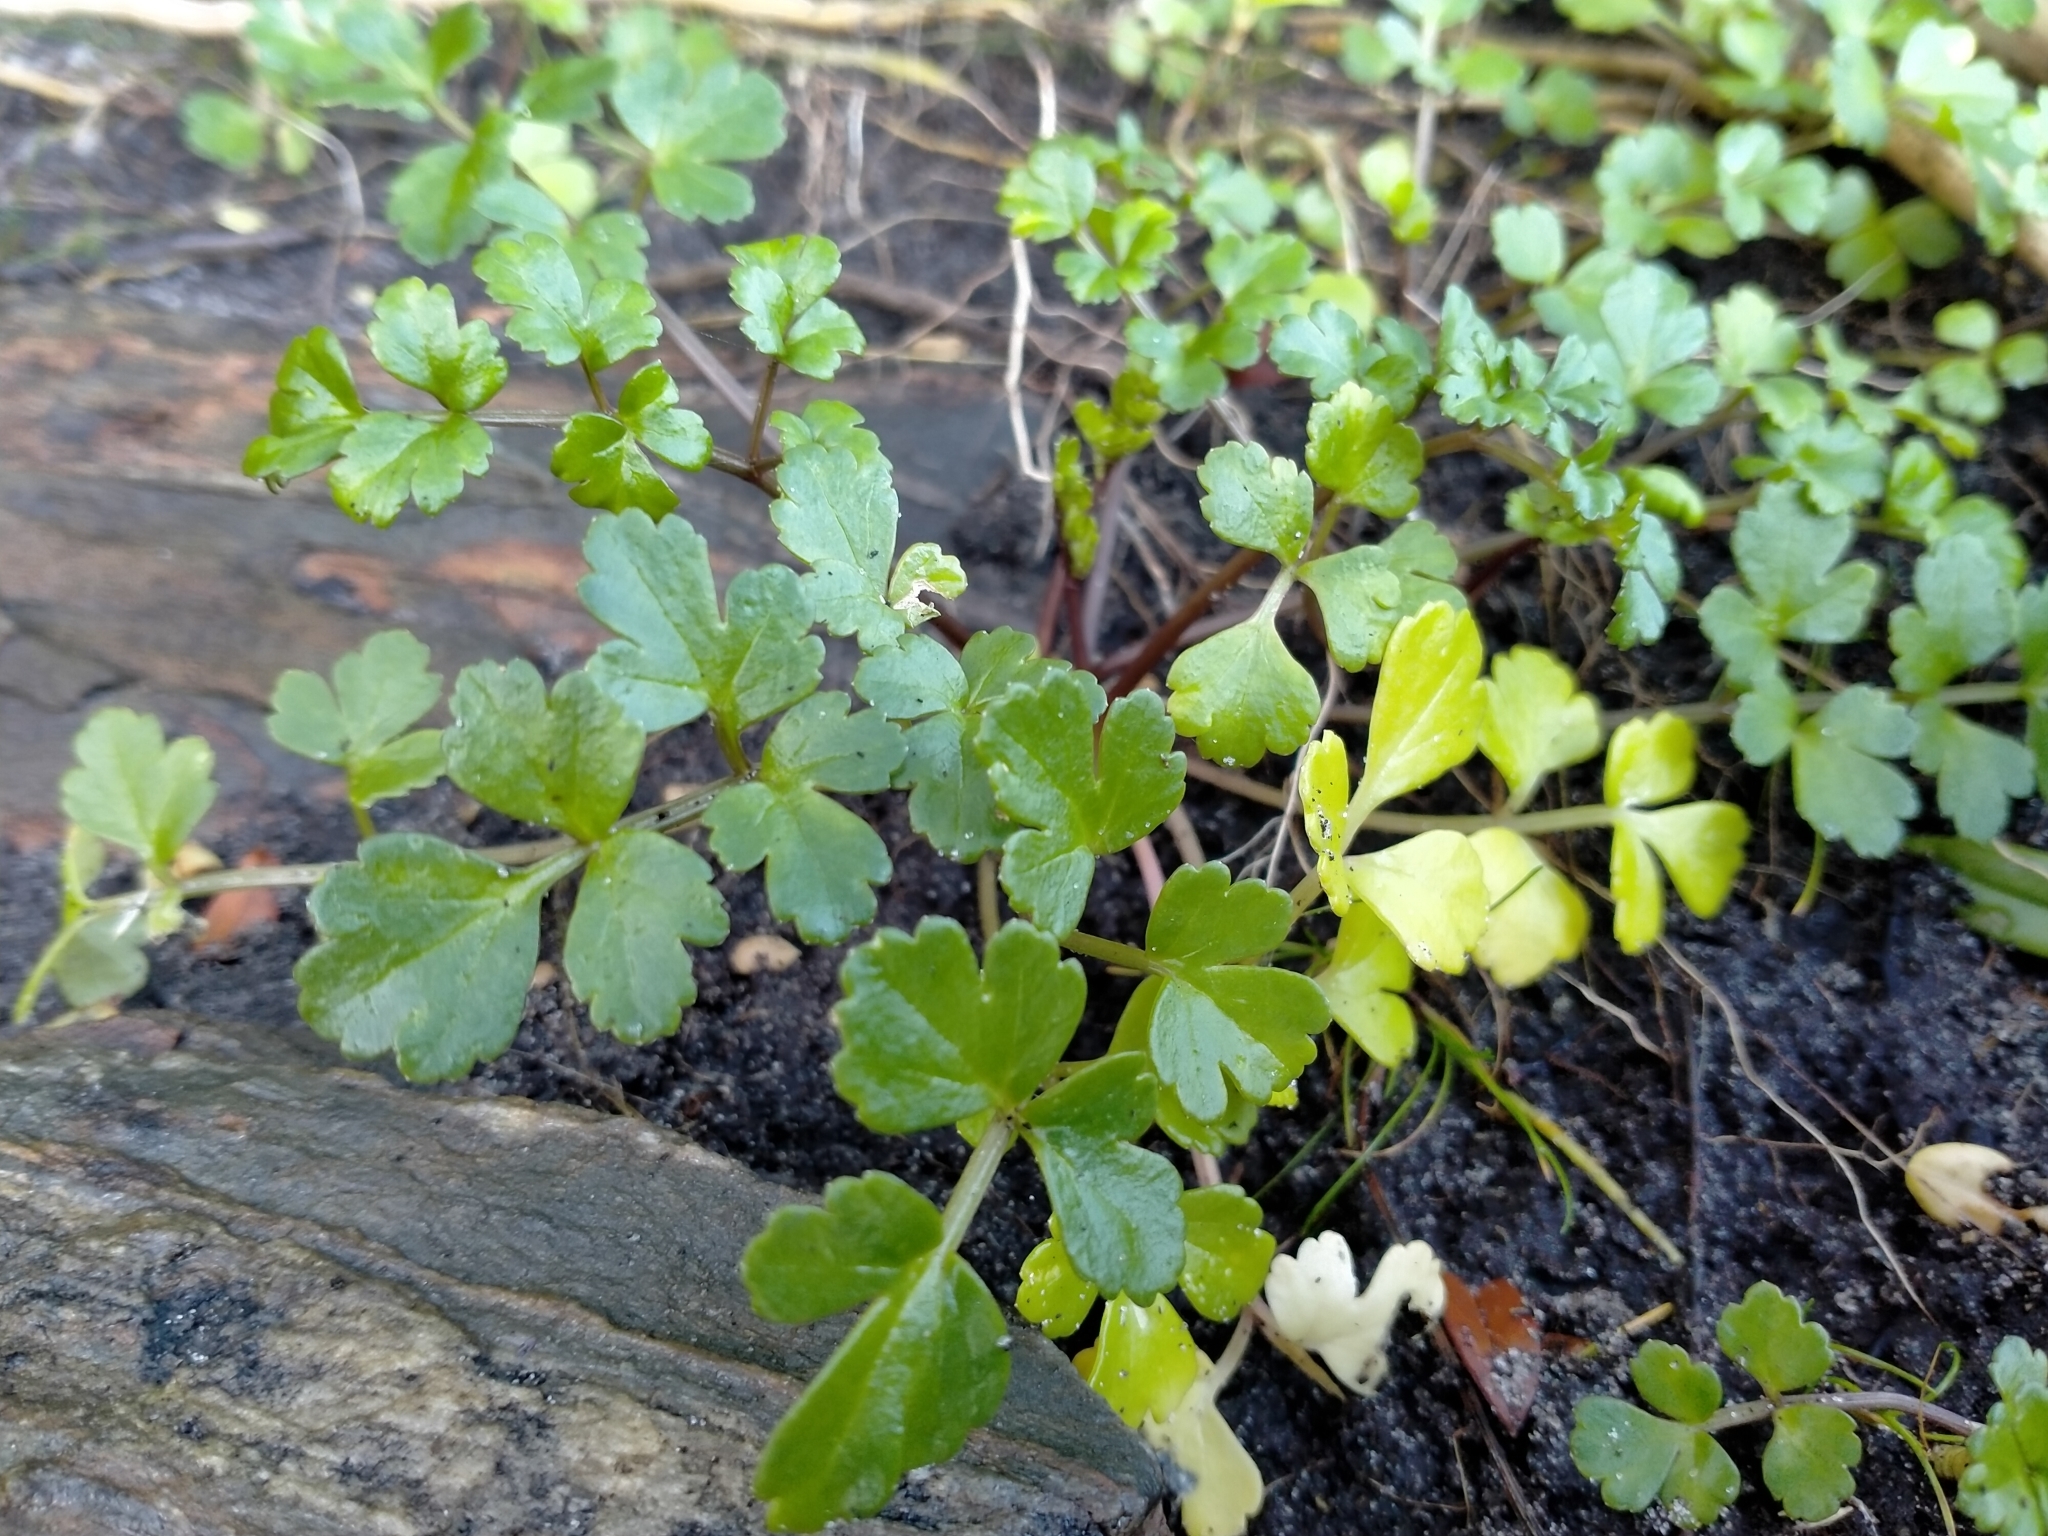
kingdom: Plantae
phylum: Tracheophyta
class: Magnoliopsida
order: Apiales
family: Apiaceae
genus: Apium
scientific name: Apium prostratum
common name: Prostrate marshwort
